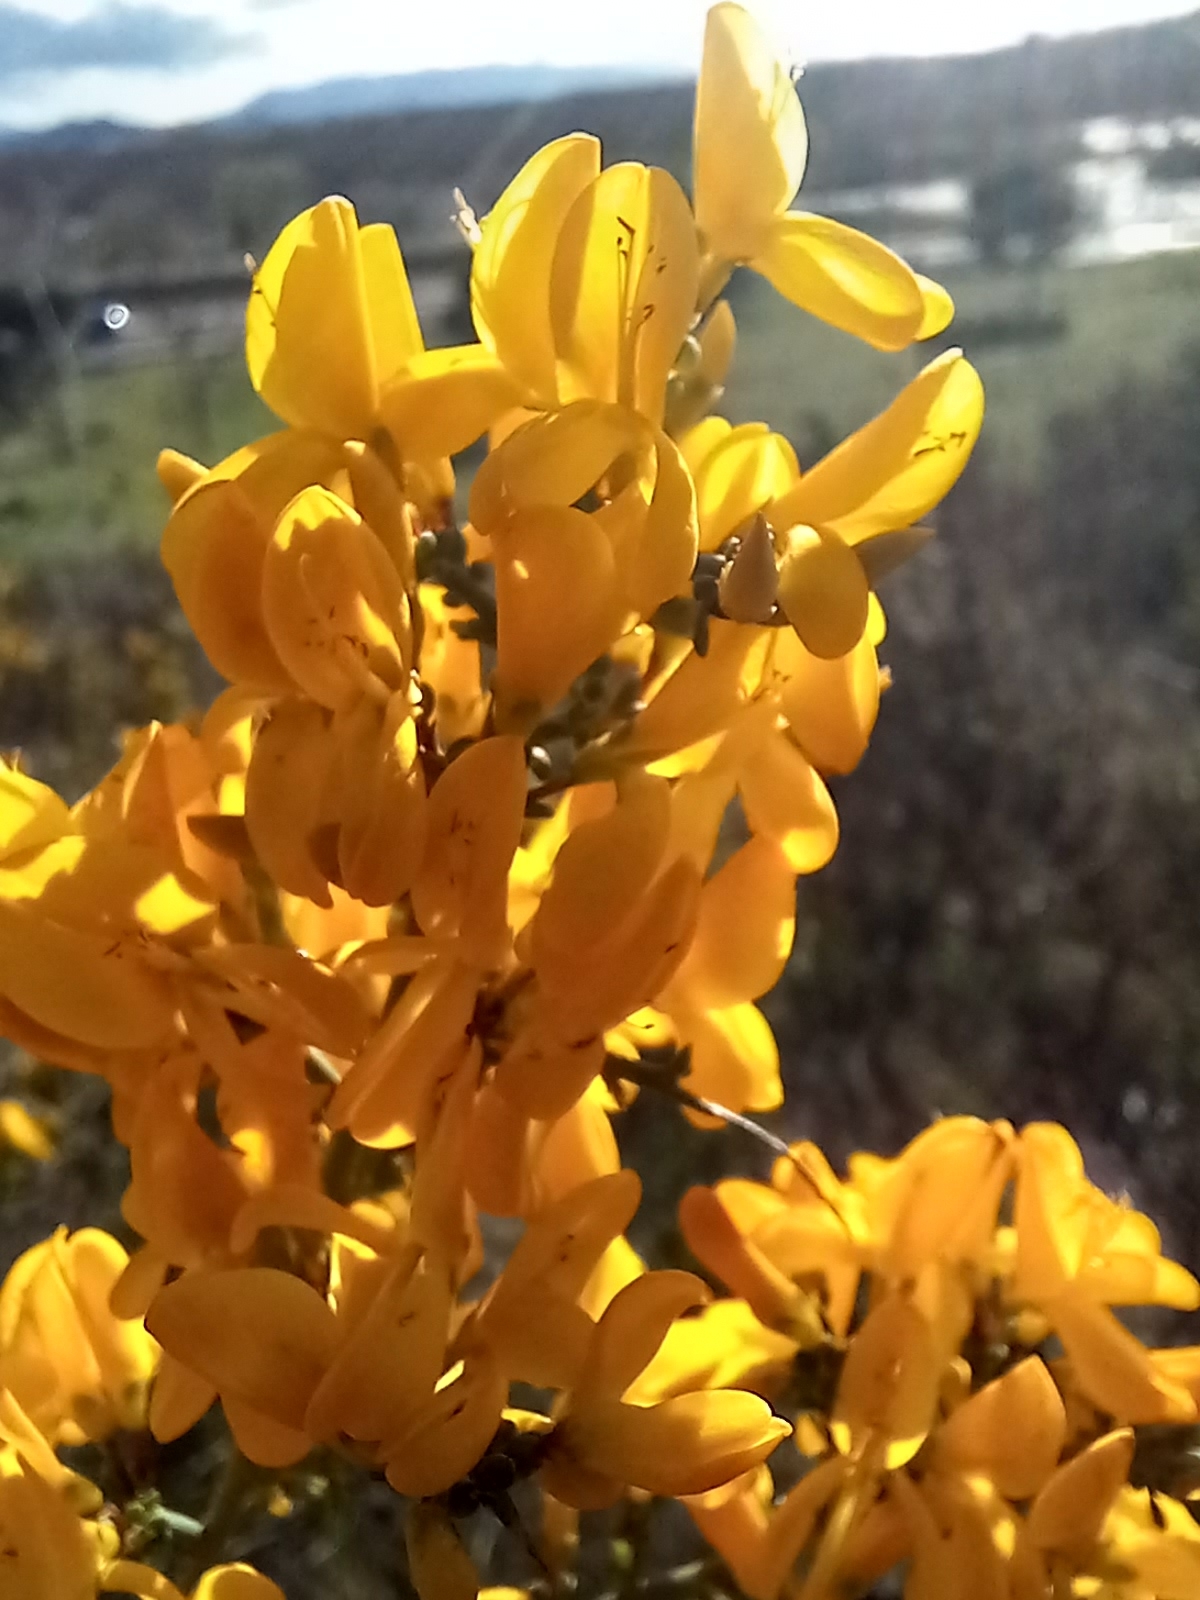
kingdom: Plantae
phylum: Tracheophyta
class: Magnoliopsida
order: Fabales
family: Fabaceae
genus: Genista
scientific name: Genista scorpius
